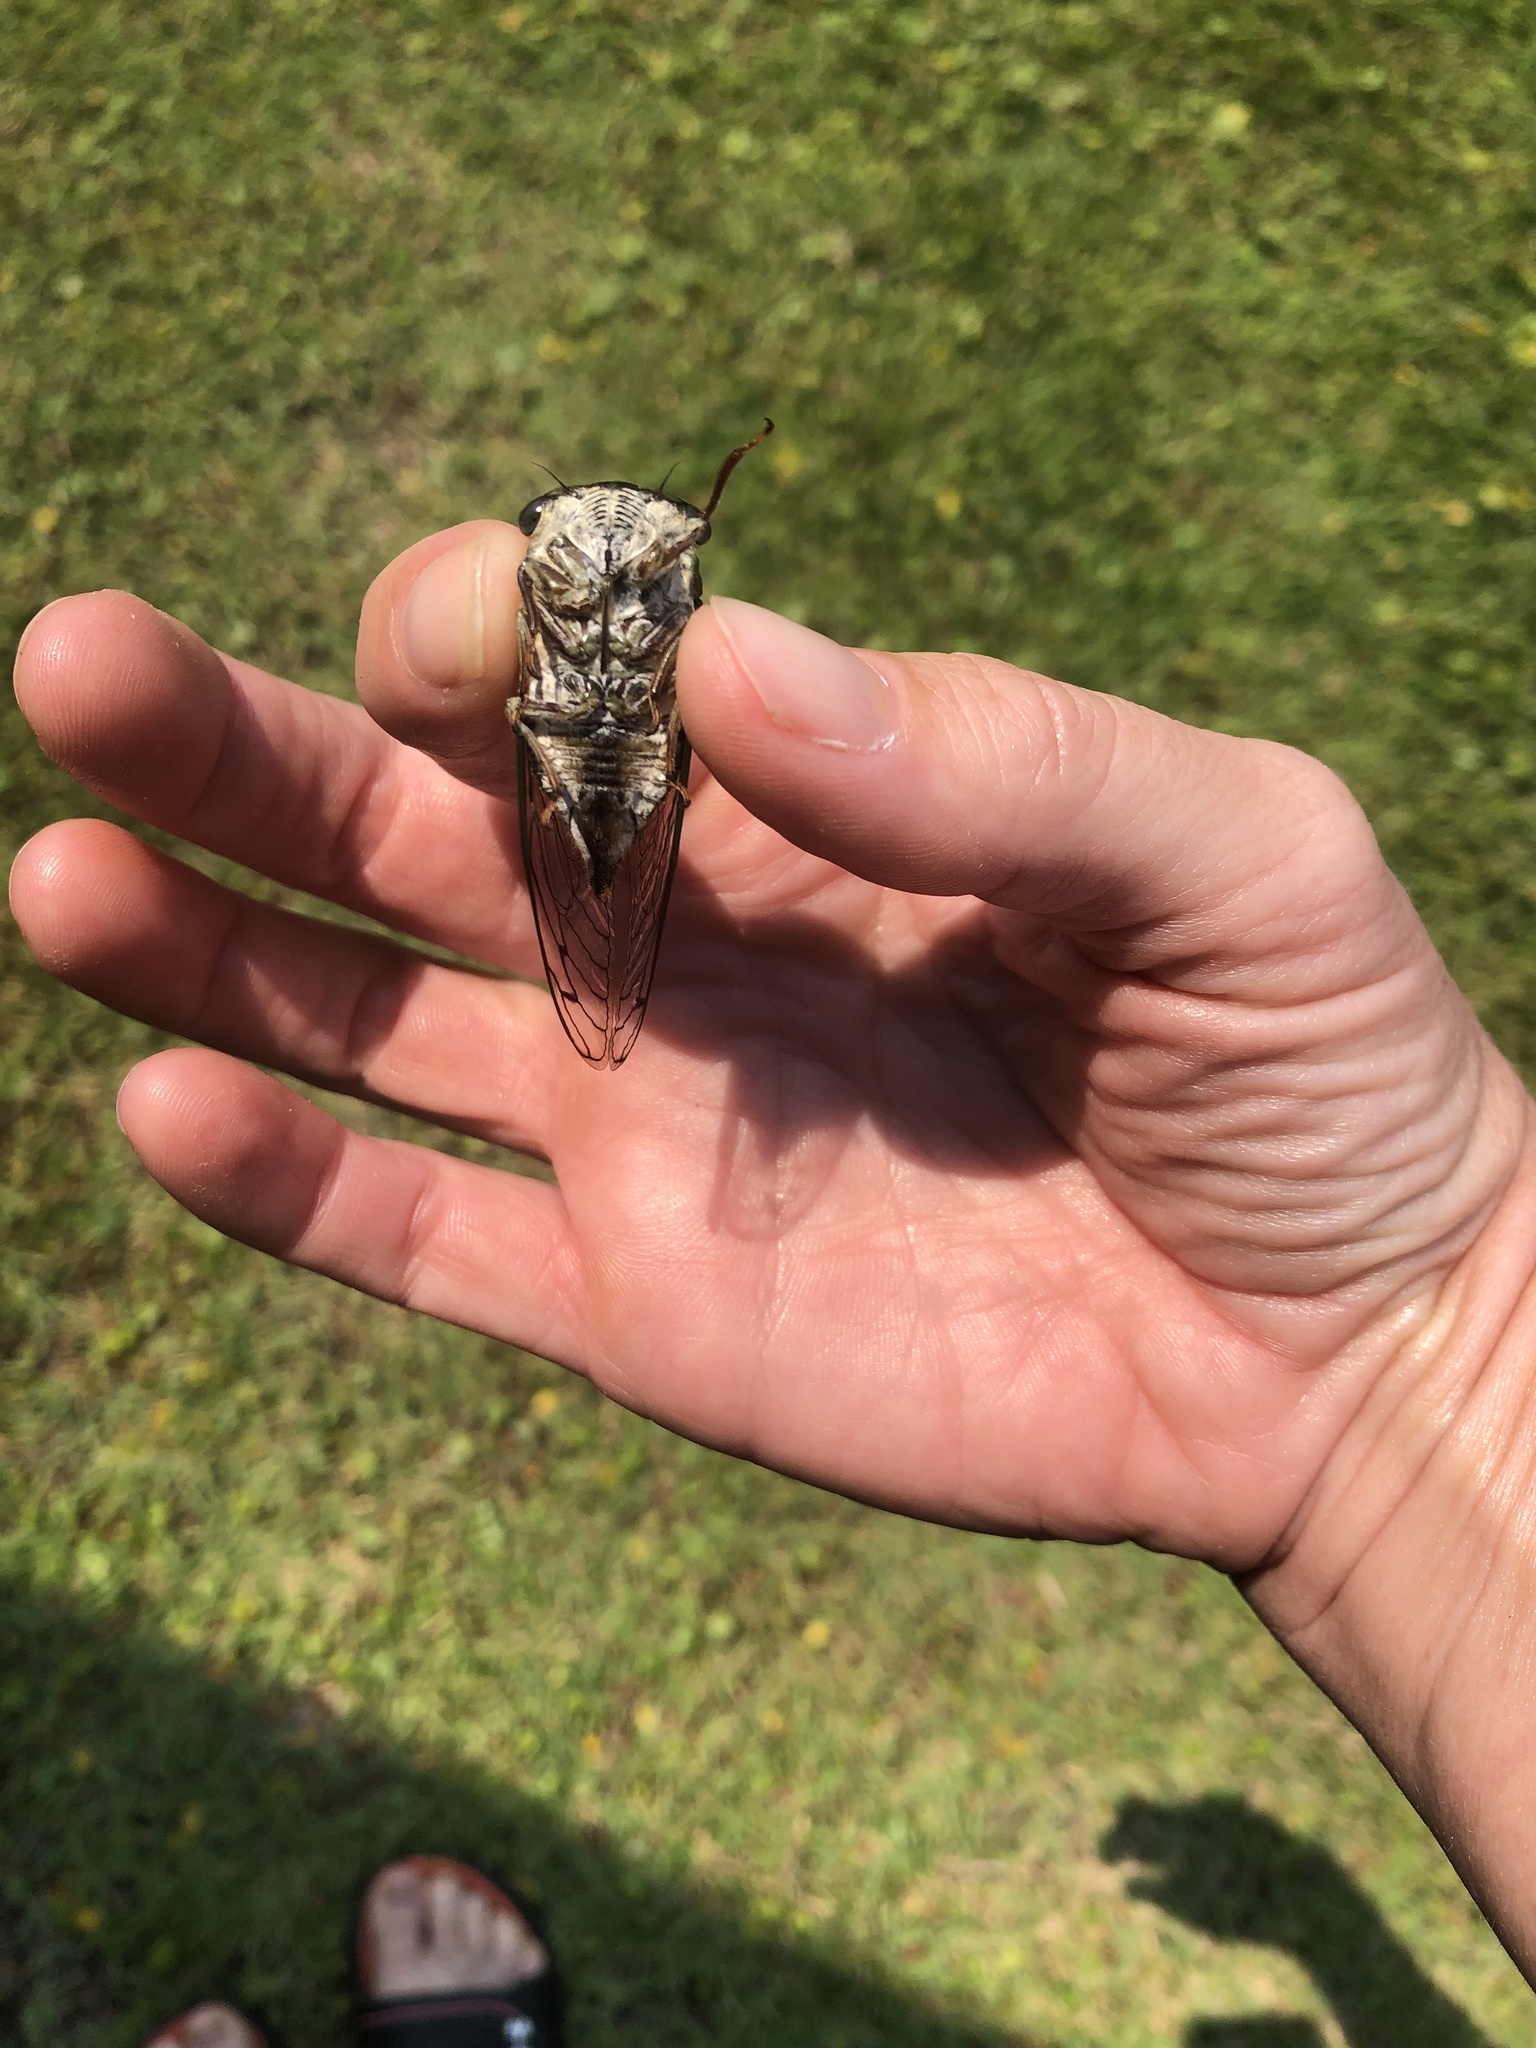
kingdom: Animalia
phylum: Arthropoda
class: Insecta
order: Hemiptera
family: Cicadidae
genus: Neotibicen
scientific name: Neotibicen davisi
